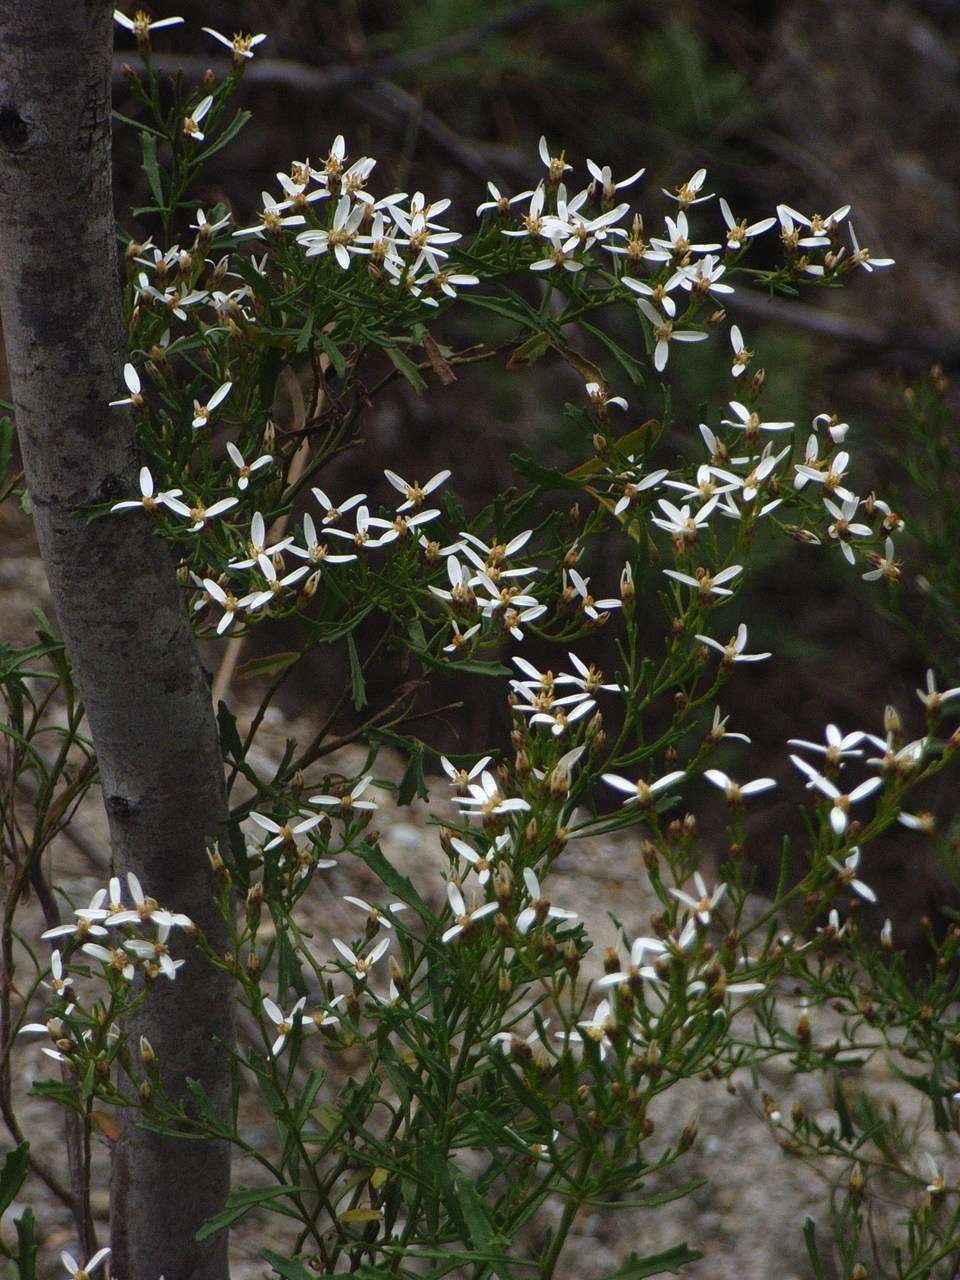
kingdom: Plantae
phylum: Tracheophyta
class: Magnoliopsida
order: Asterales
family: Asteraceae
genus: Olearia
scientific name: Olearia decurrens
